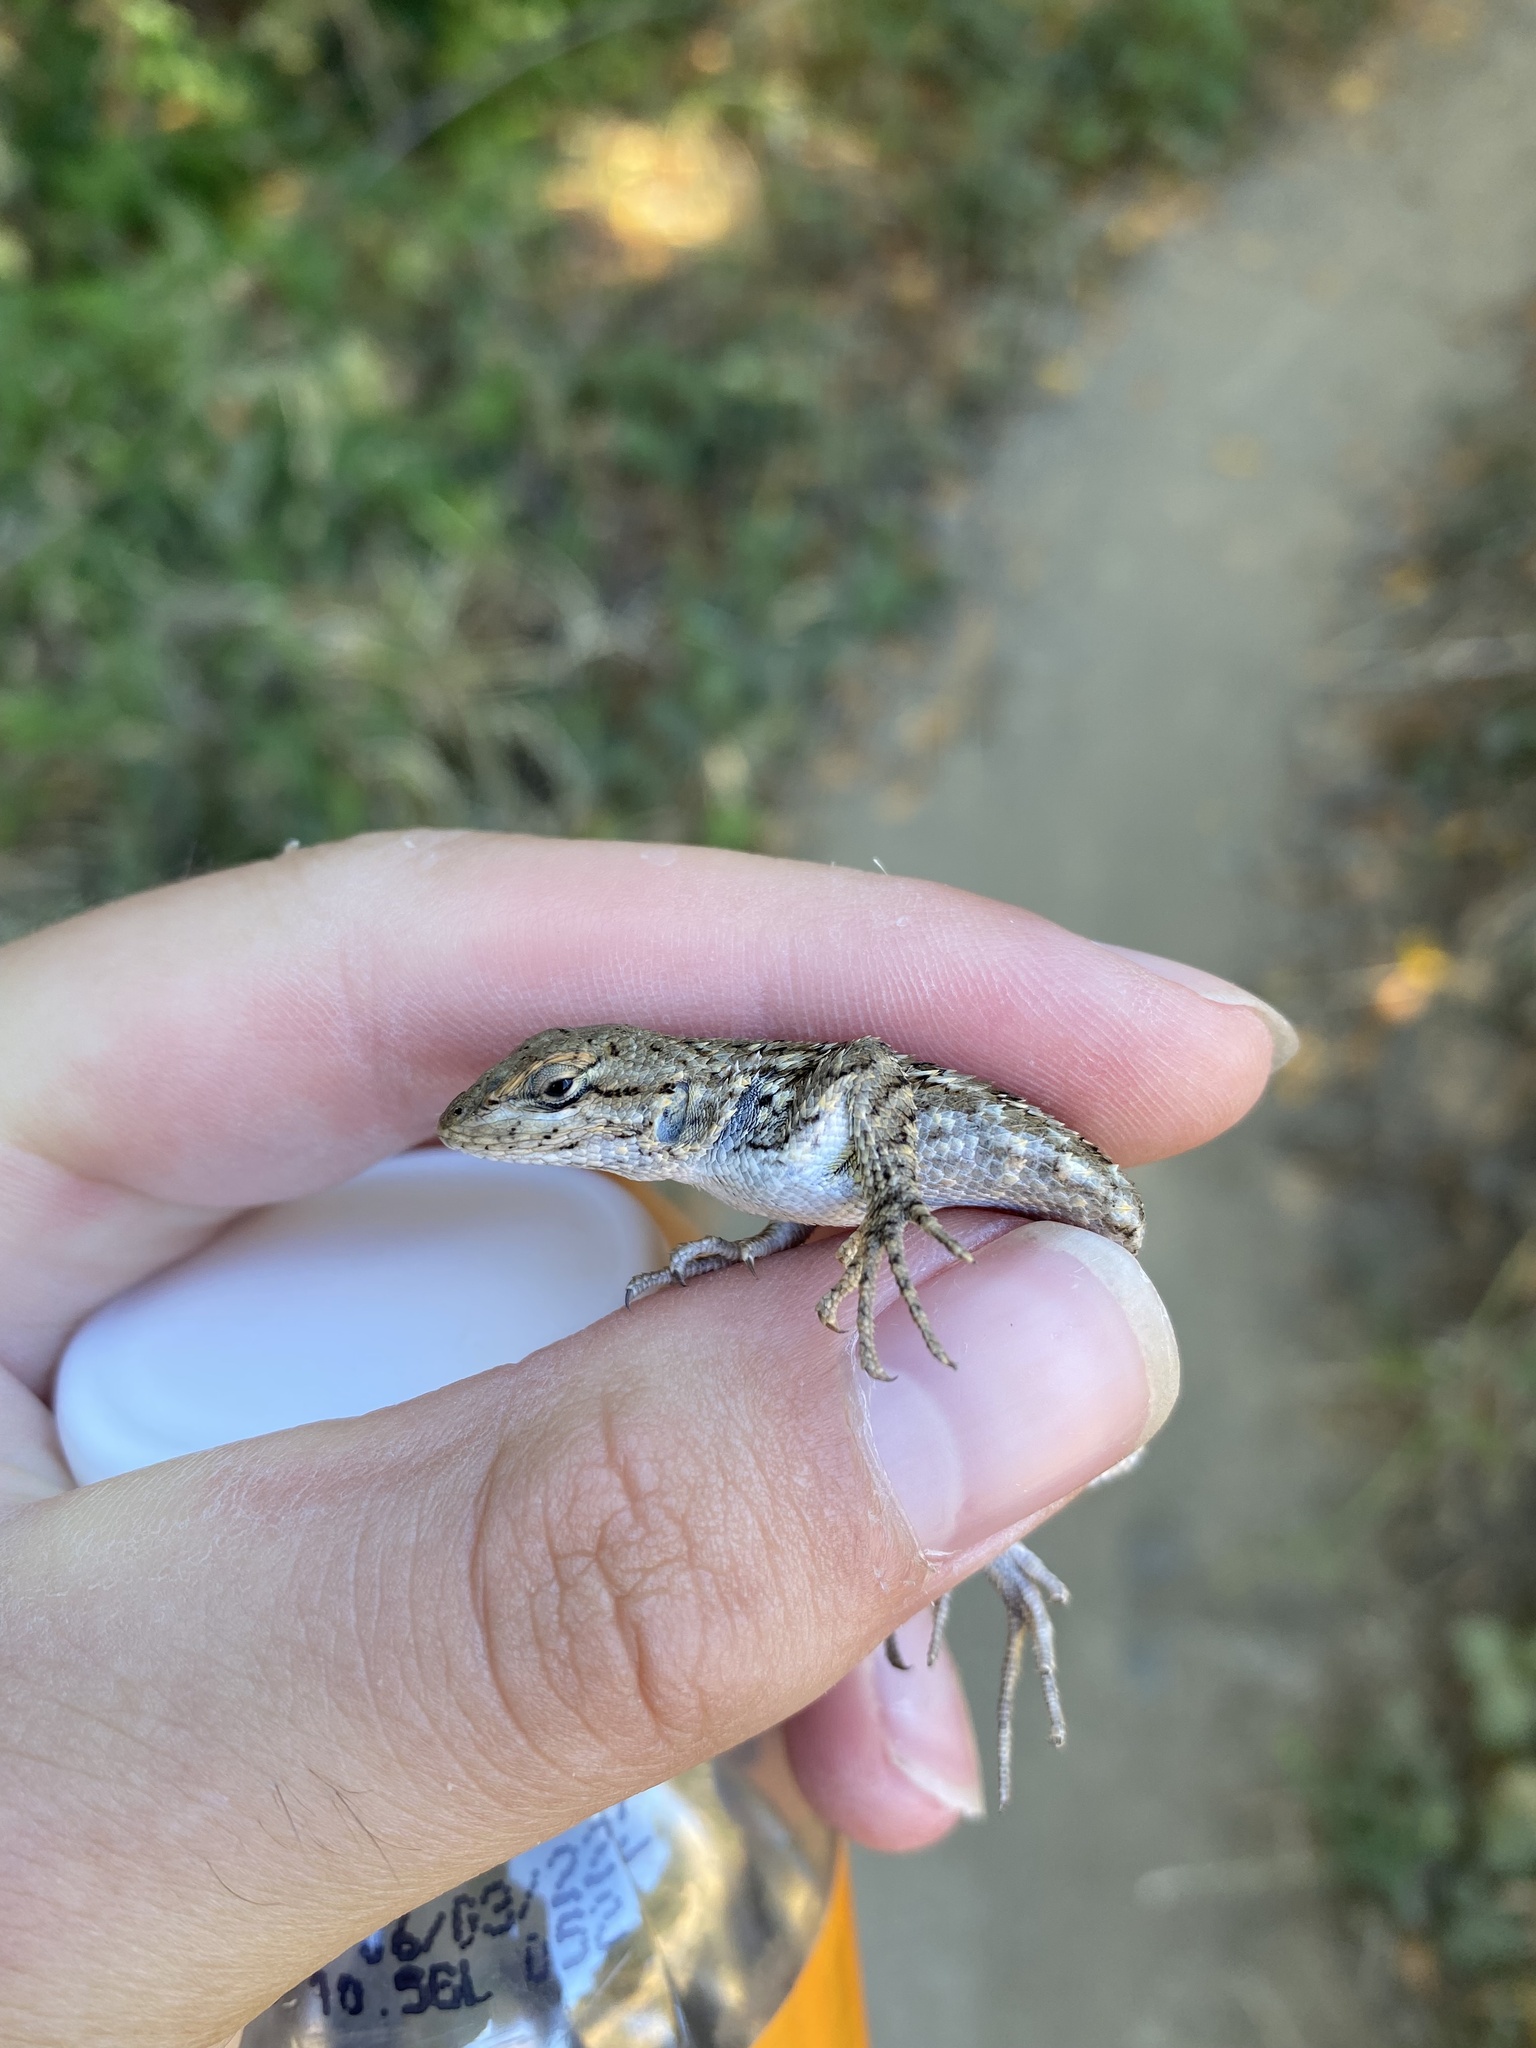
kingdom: Animalia
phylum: Chordata
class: Squamata
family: Phrynosomatidae
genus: Sceloporus
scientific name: Sceloporus occidentalis
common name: Western fence lizard
